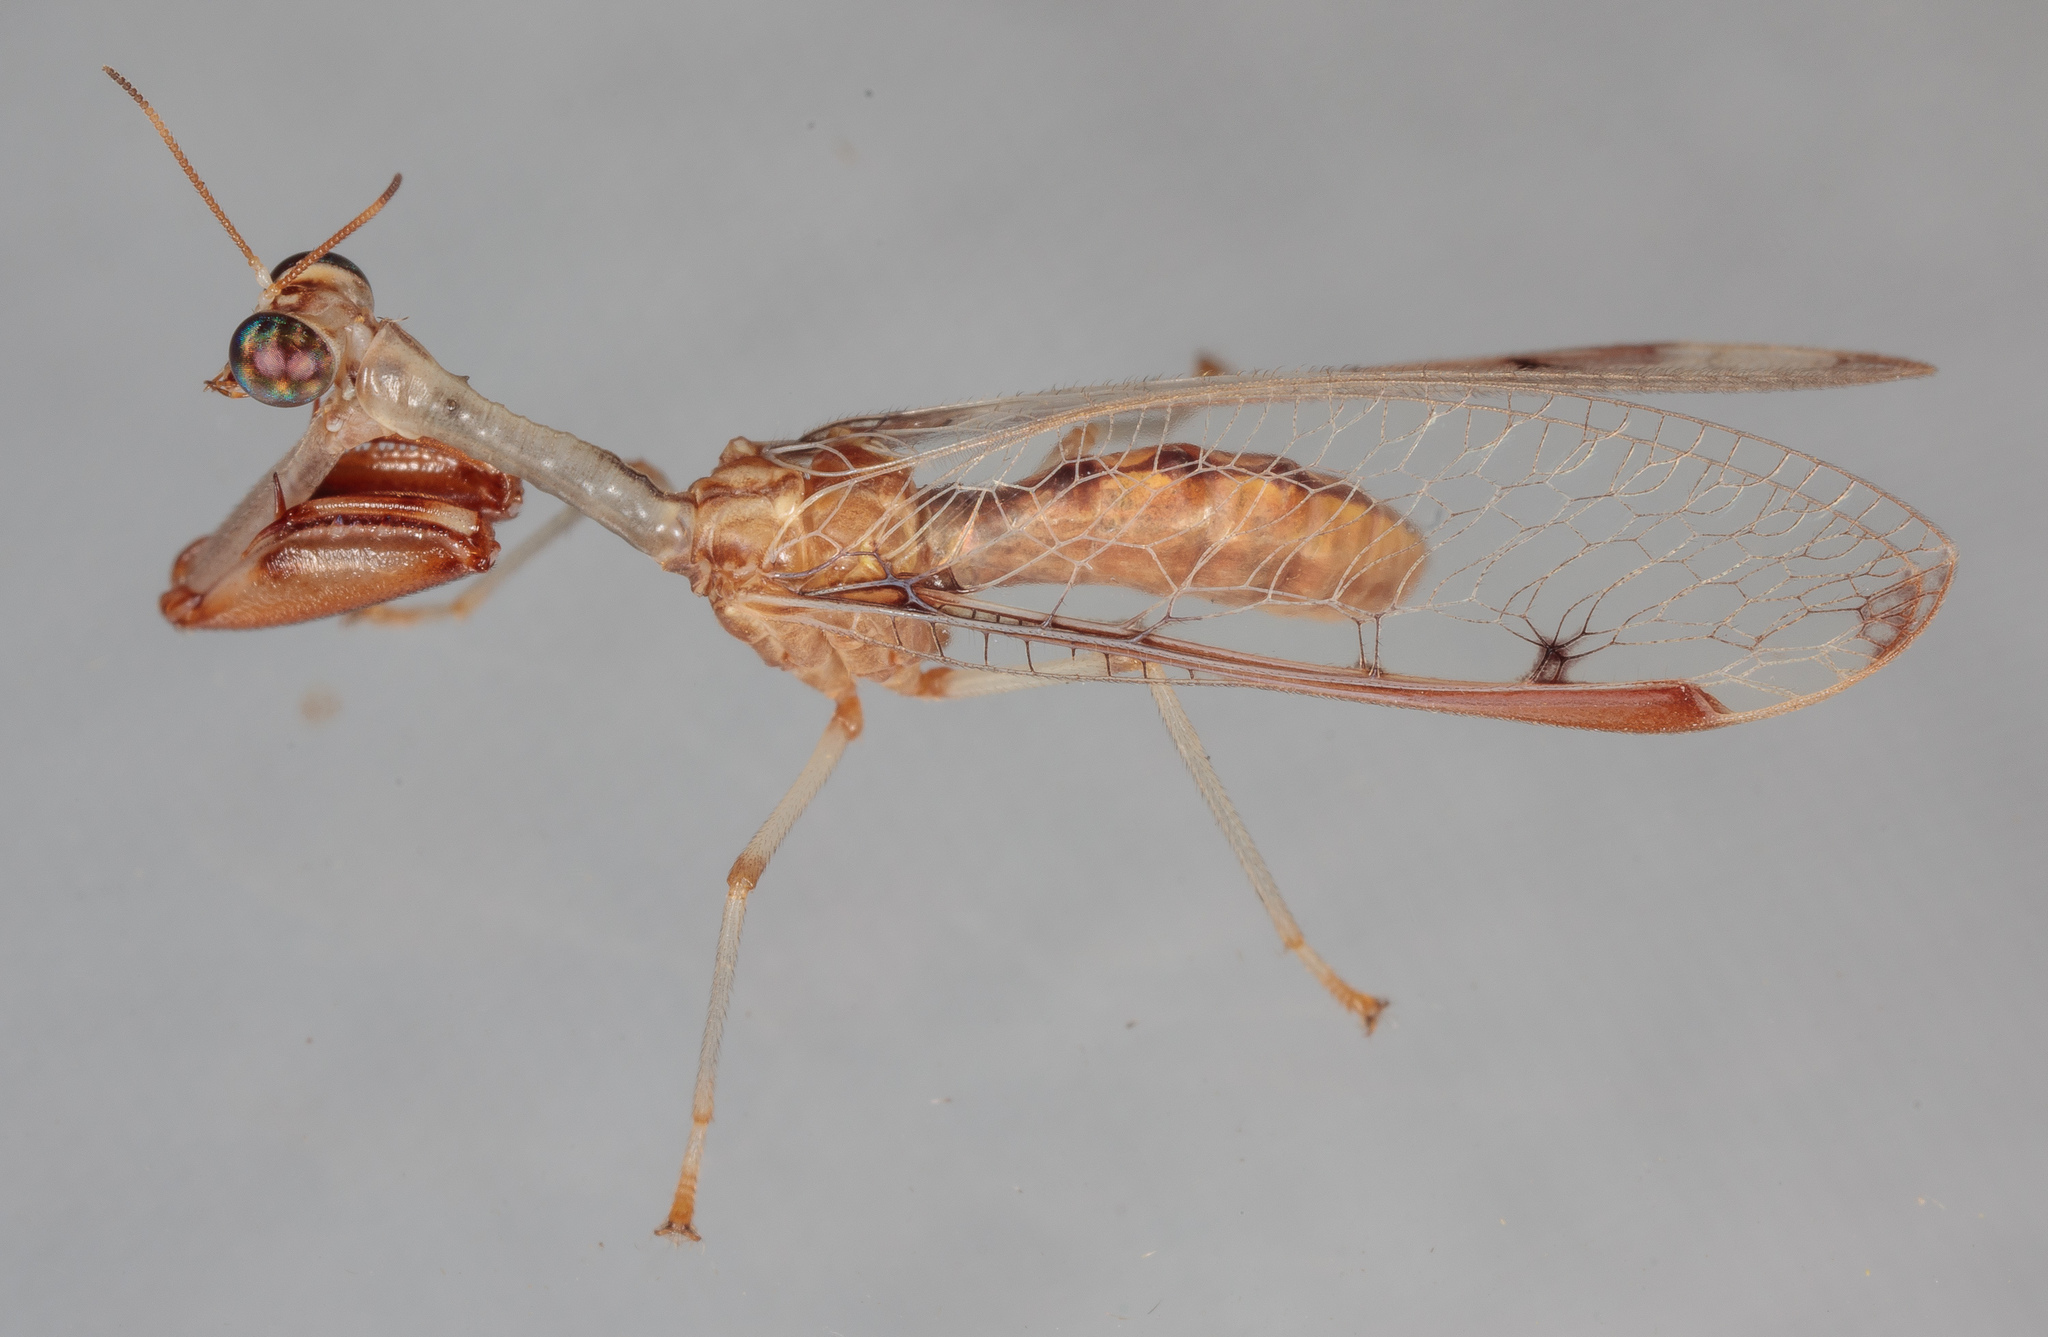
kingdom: Animalia
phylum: Arthropoda
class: Insecta
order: Neuroptera
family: Mantispidae
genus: Dicromantispa
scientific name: Dicromantispa interrupta
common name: Four-spotted mantidfly
